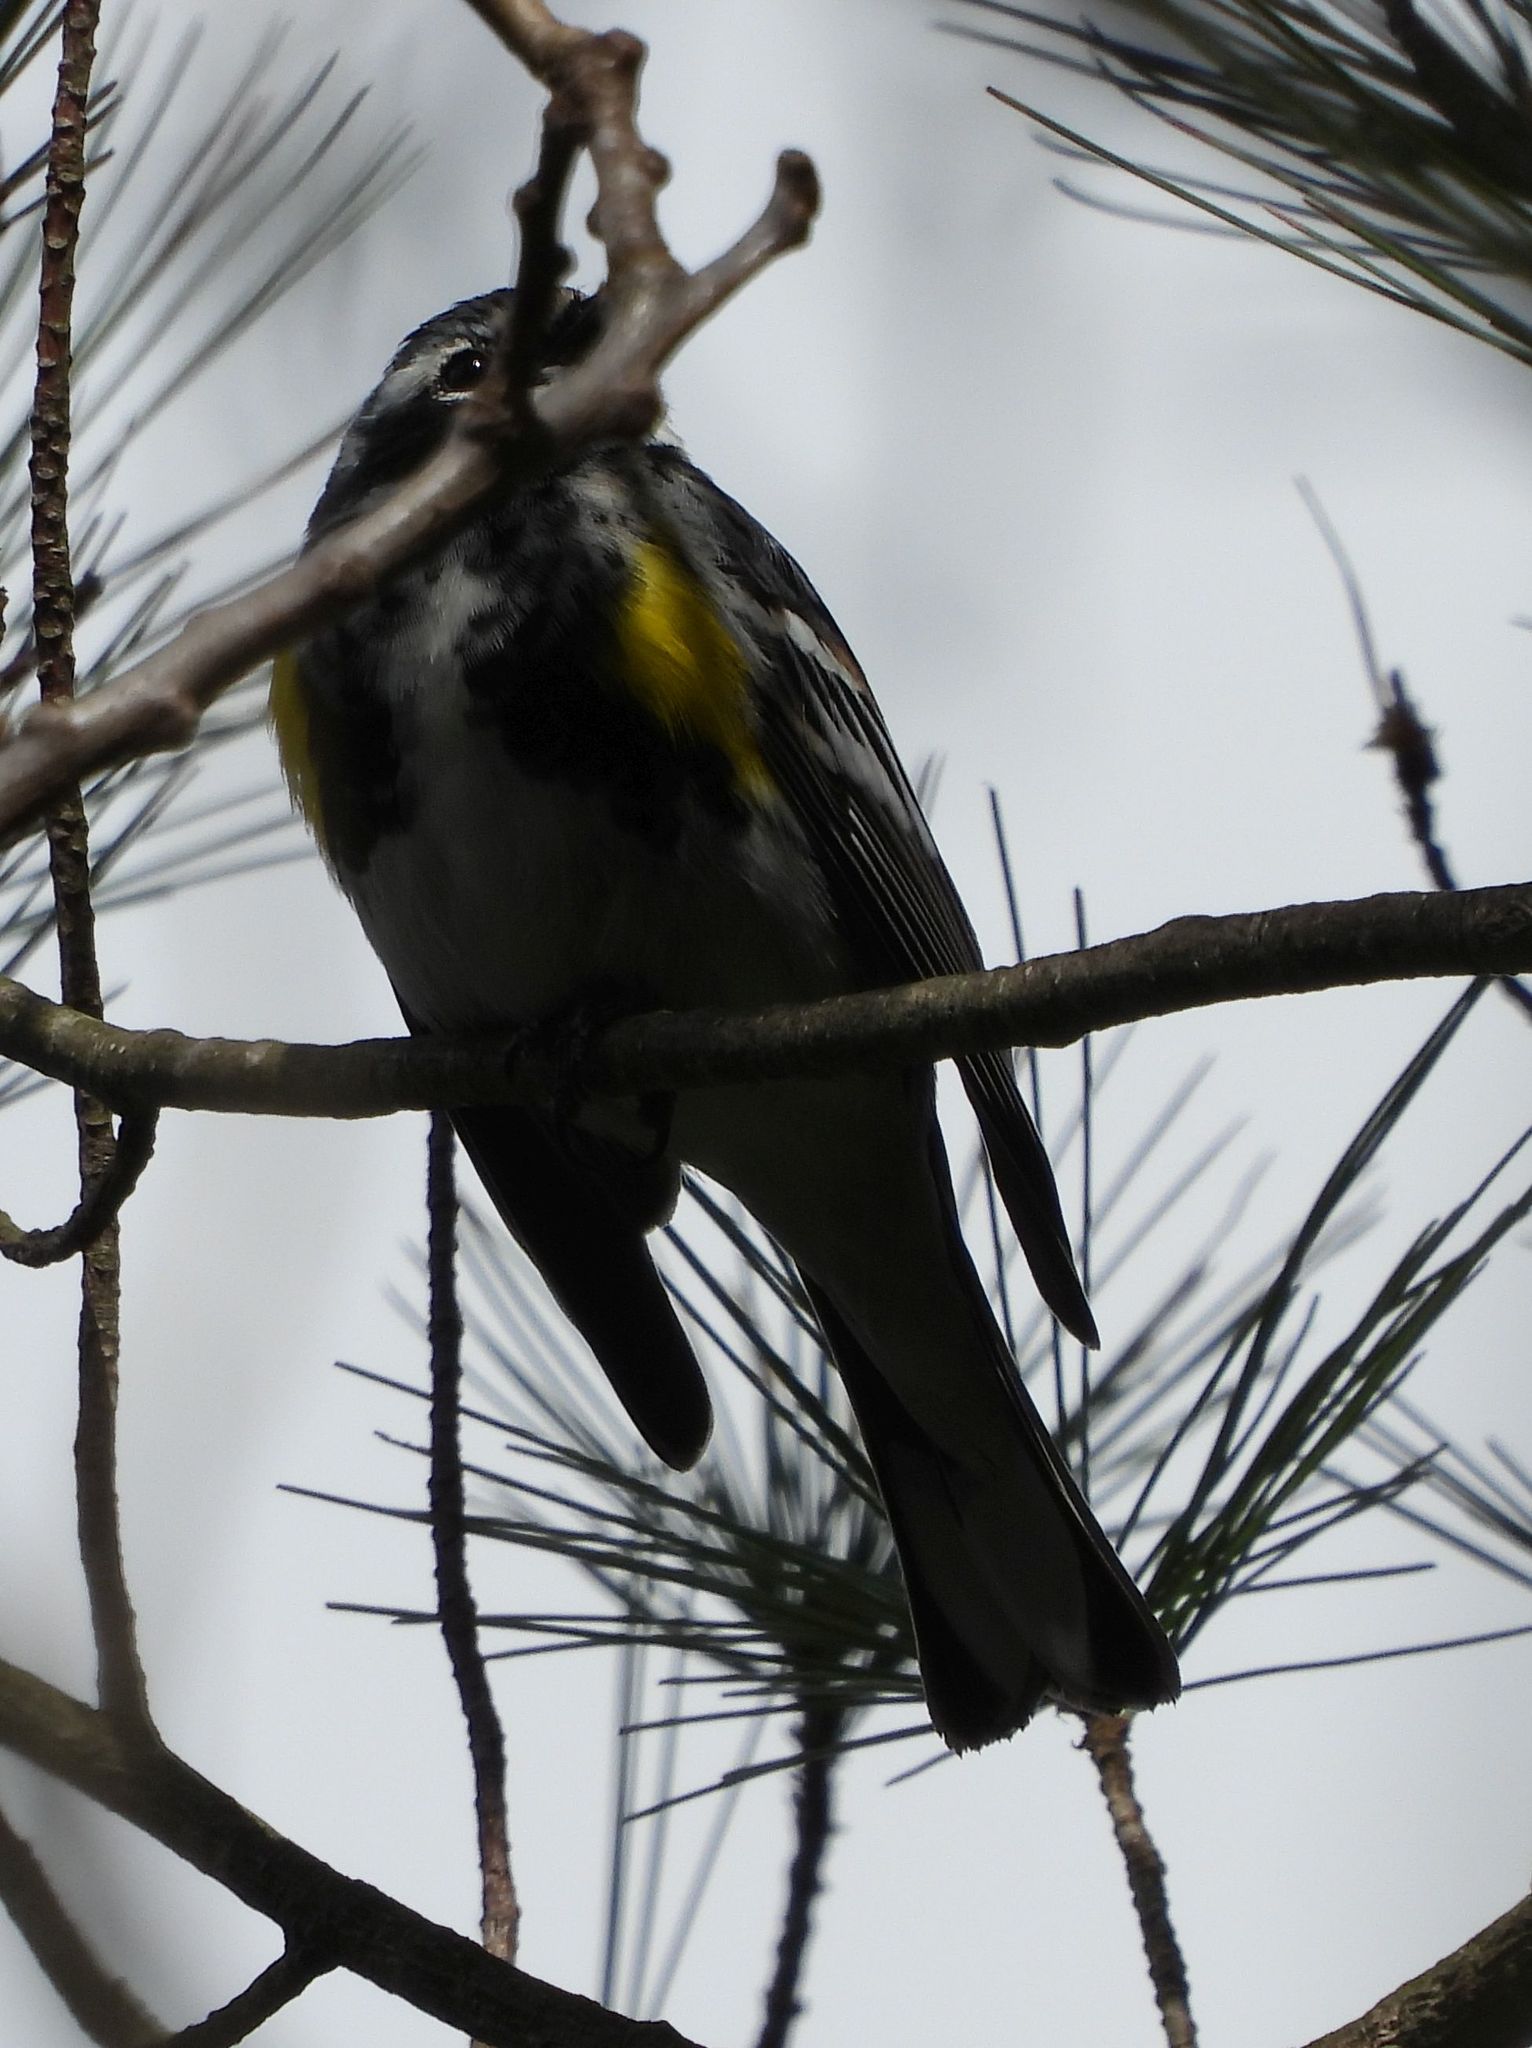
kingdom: Animalia
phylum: Chordata
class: Aves
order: Passeriformes
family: Parulidae
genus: Setophaga
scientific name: Setophaga coronata
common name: Myrtle warbler
